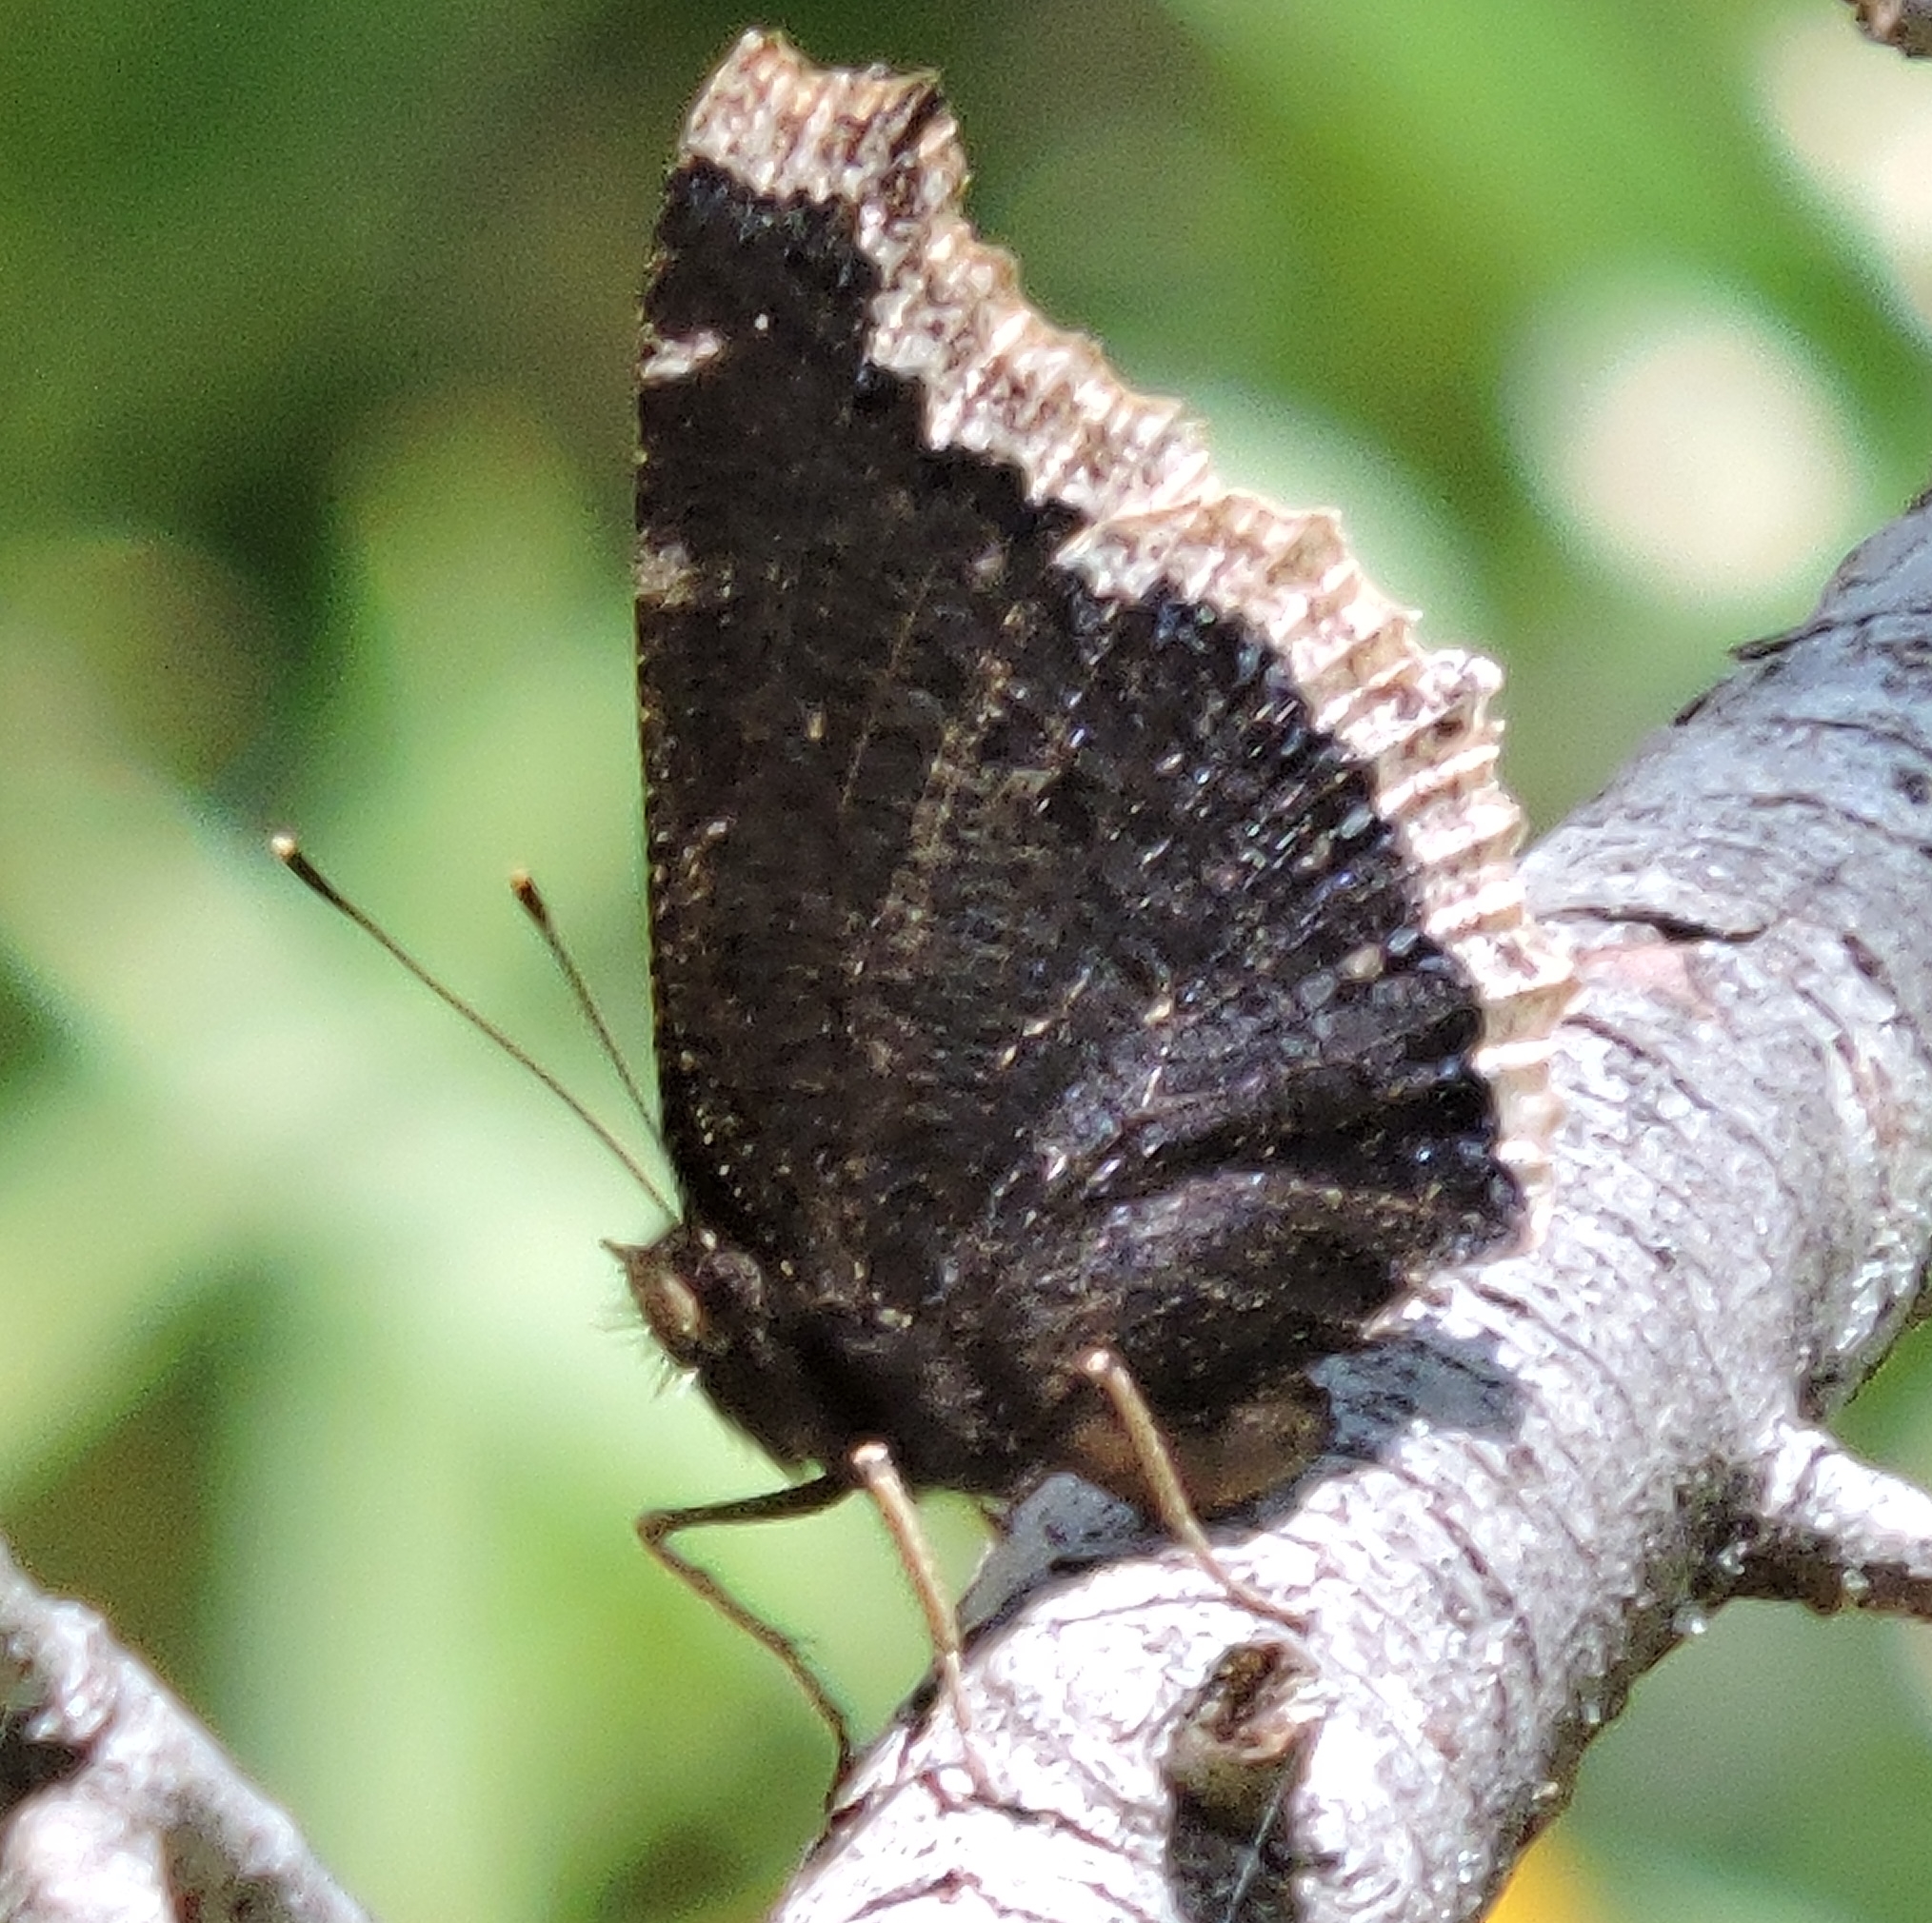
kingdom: Animalia
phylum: Arthropoda
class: Insecta
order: Lepidoptera
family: Nymphalidae
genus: Nymphalis
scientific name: Nymphalis antiopa
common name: Camberwell beauty
